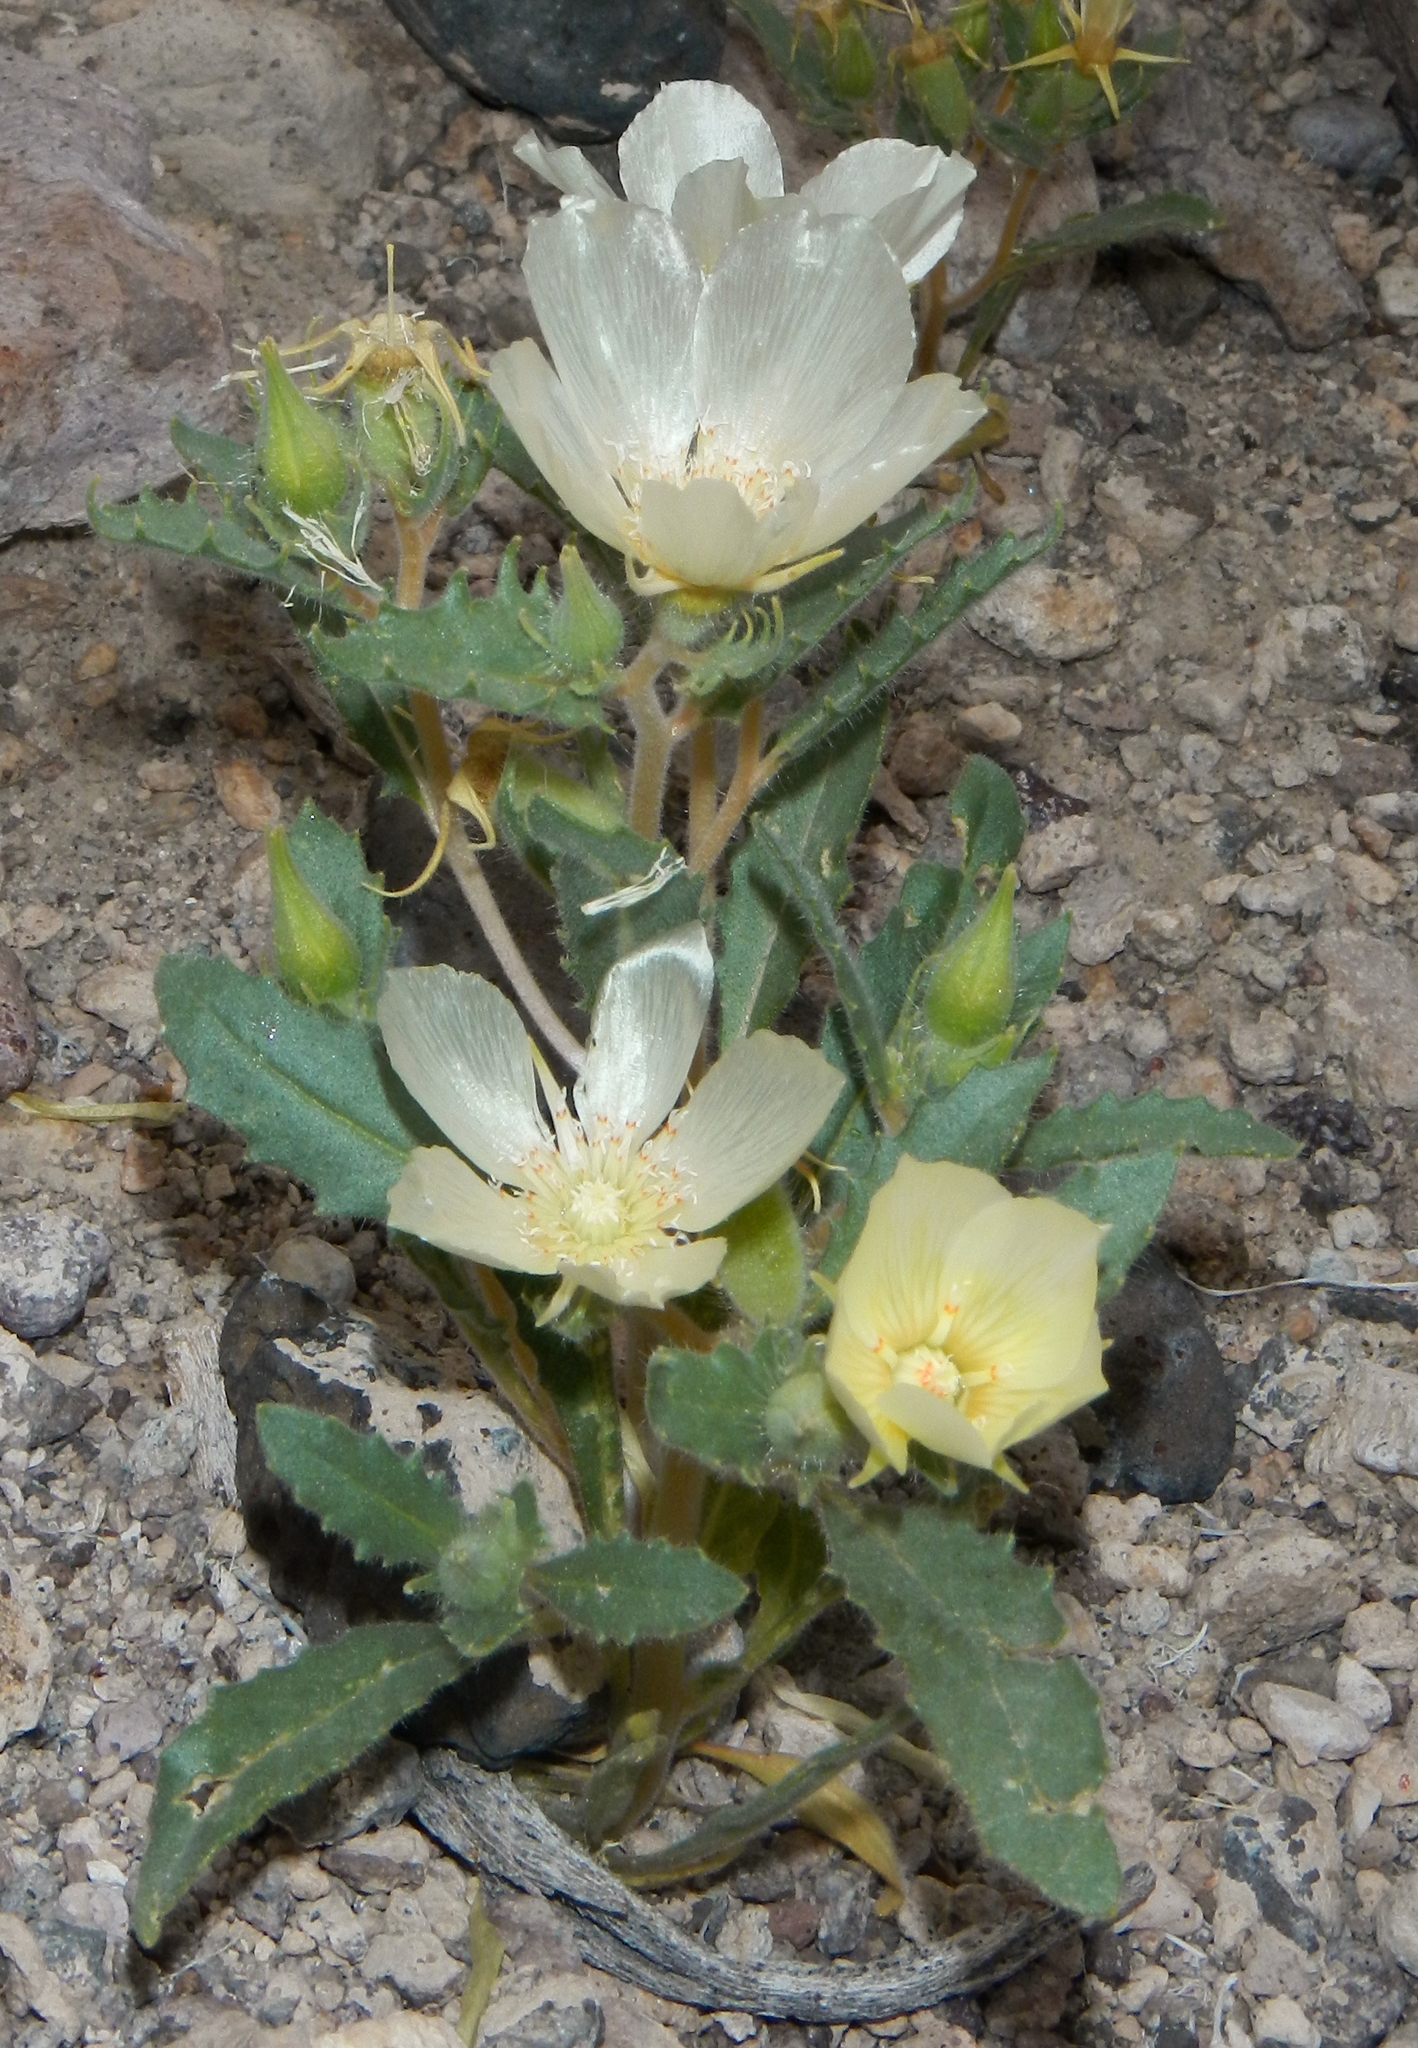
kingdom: Plantae
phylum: Tracheophyta
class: Magnoliopsida
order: Cornales
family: Loasaceae
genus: Mentzelia
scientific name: Mentzelia tricuspis
